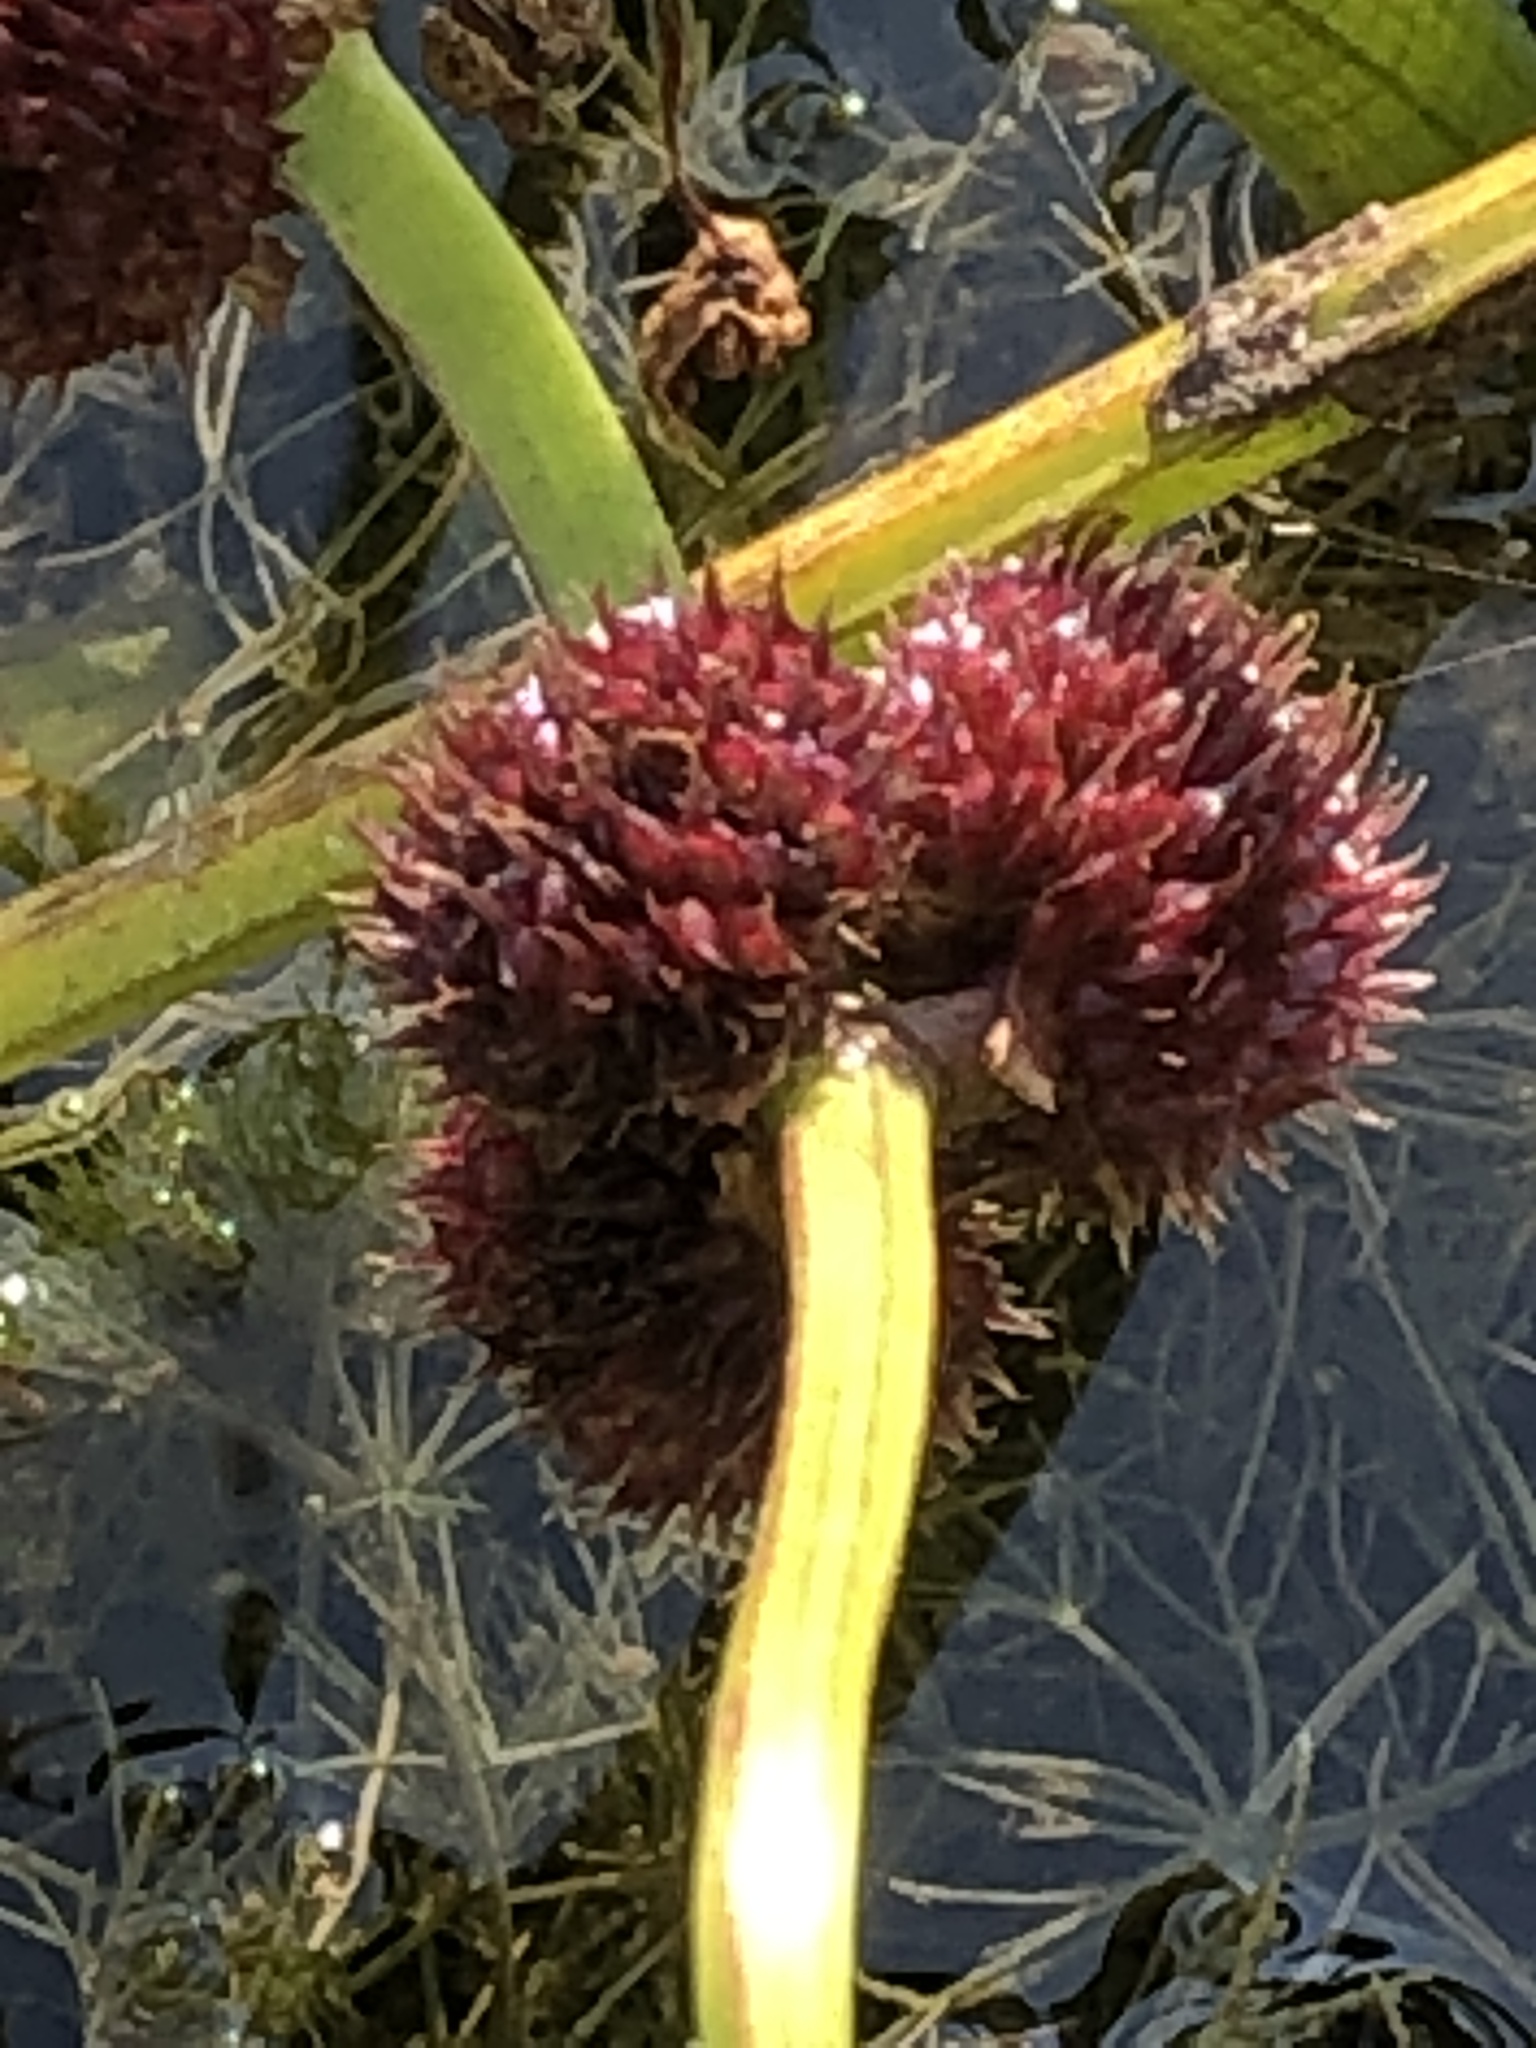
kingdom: Plantae
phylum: Tracheophyta
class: Liliopsida
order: Alismatales
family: Alismataceae
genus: Sagittaria
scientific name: Sagittaria rigida
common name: Canadian arrowhead
